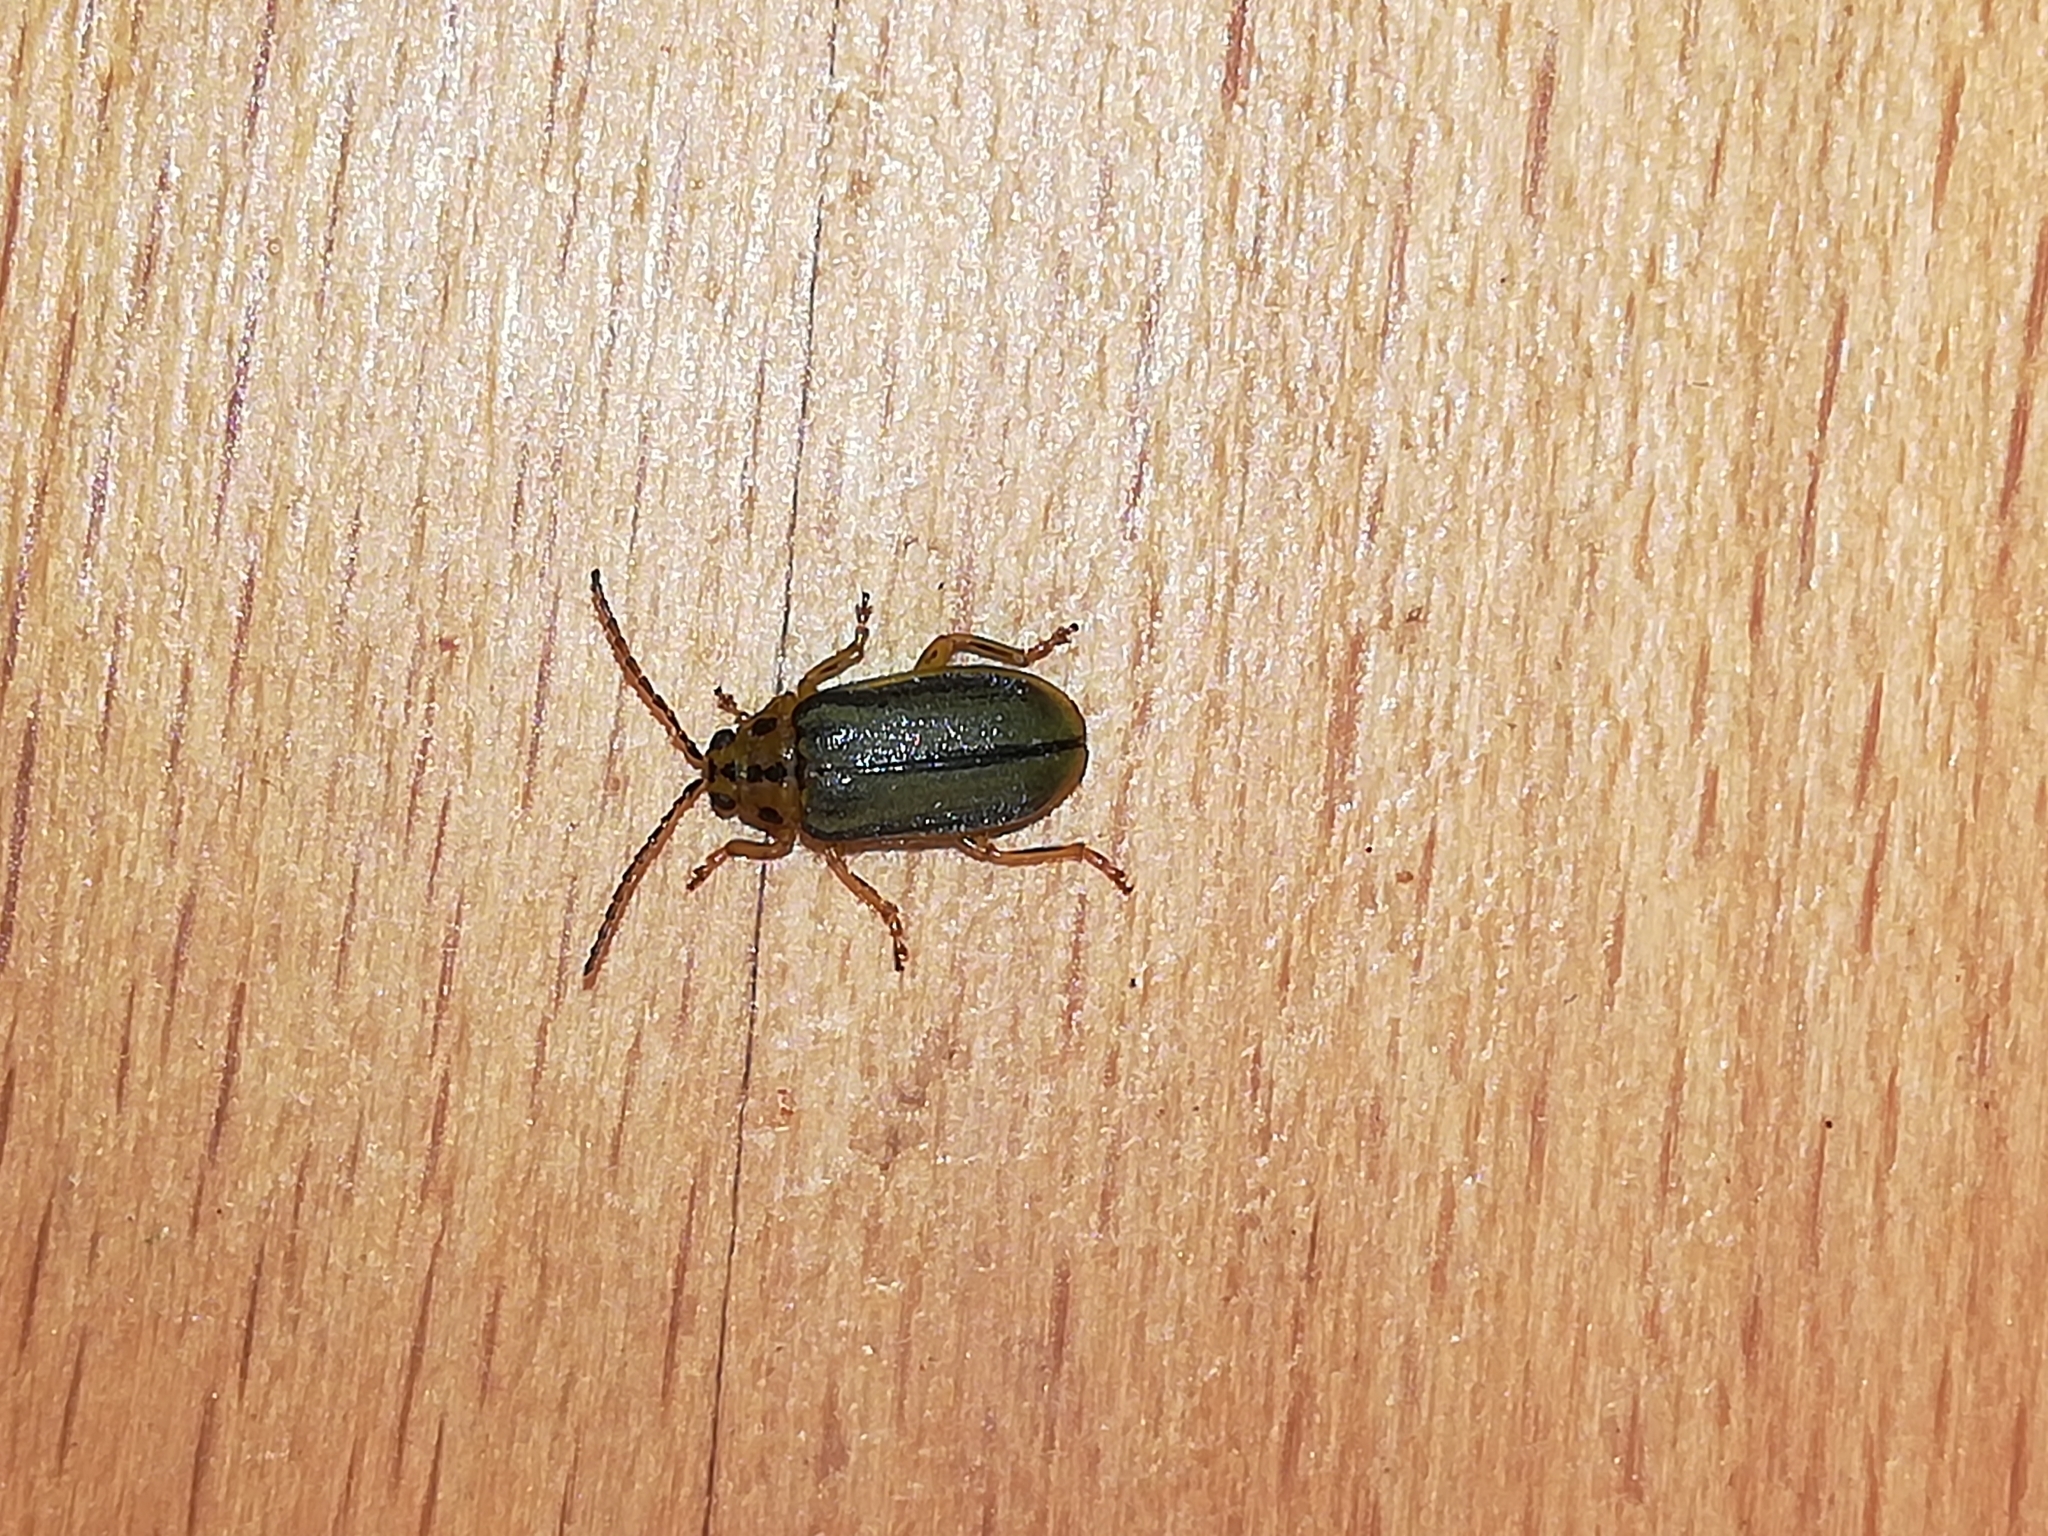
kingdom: Animalia
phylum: Arthropoda
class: Insecta
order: Coleoptera
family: Chrysomelidae
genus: Xanthogaleruca
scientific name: Xanthogaleruca luteola
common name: Elm leaf beetle
